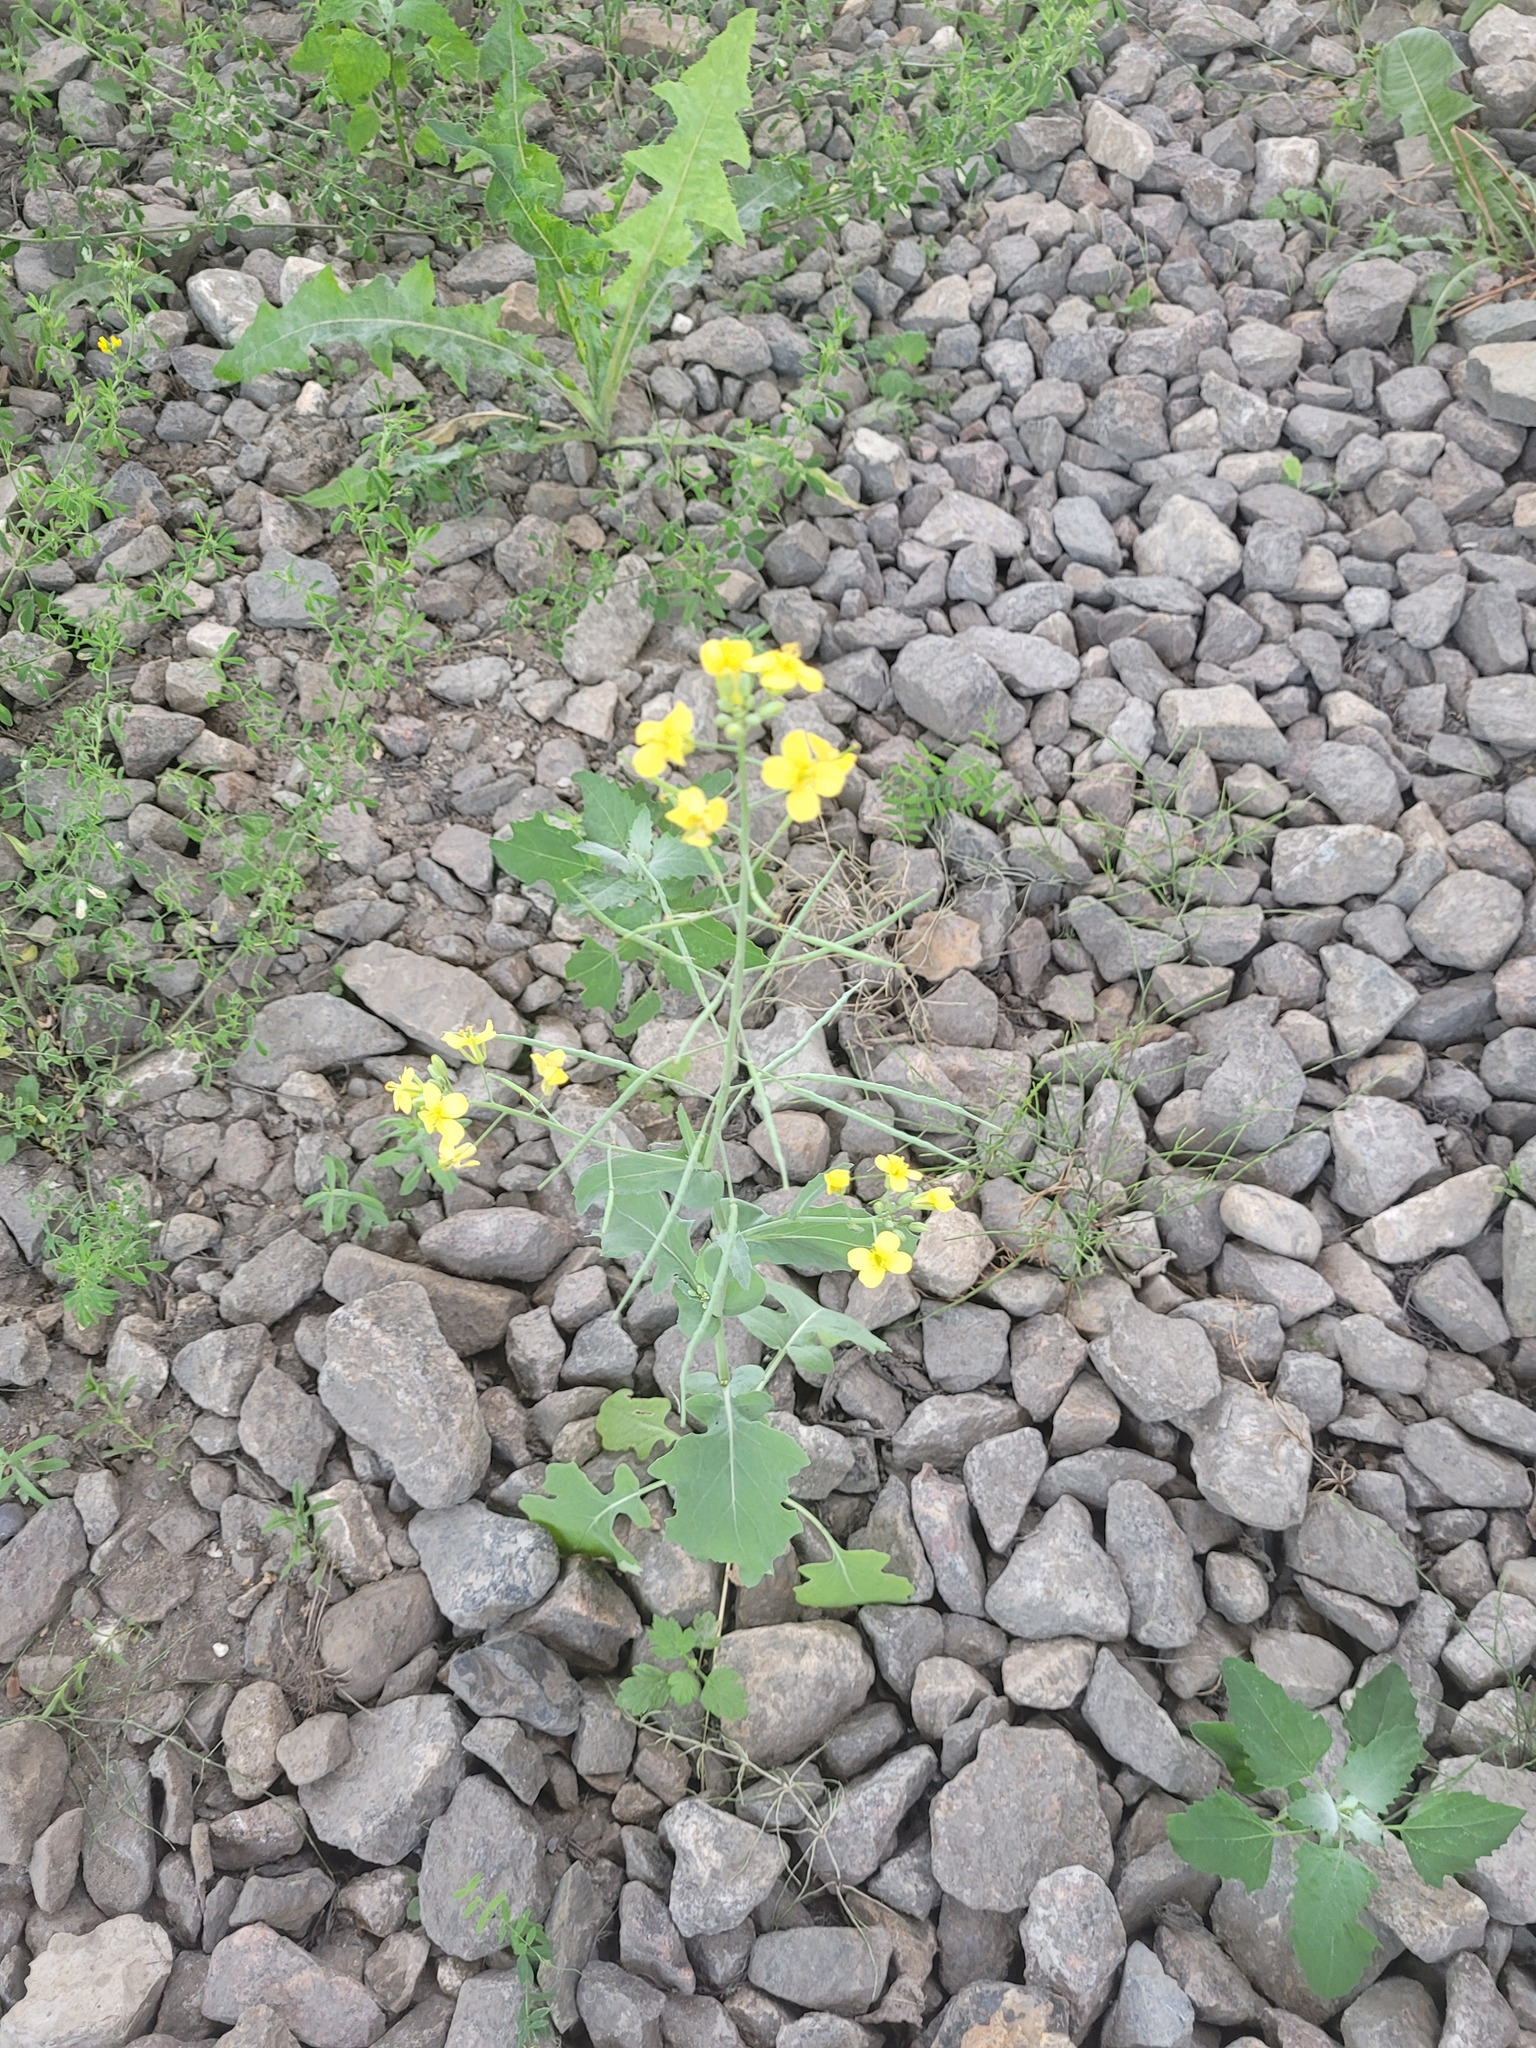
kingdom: Plantae
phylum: Tracheophyta
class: Magnoliopsida
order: Brassicales
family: Brassicaceae
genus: Brassica
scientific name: Brassica napus
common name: Rape
